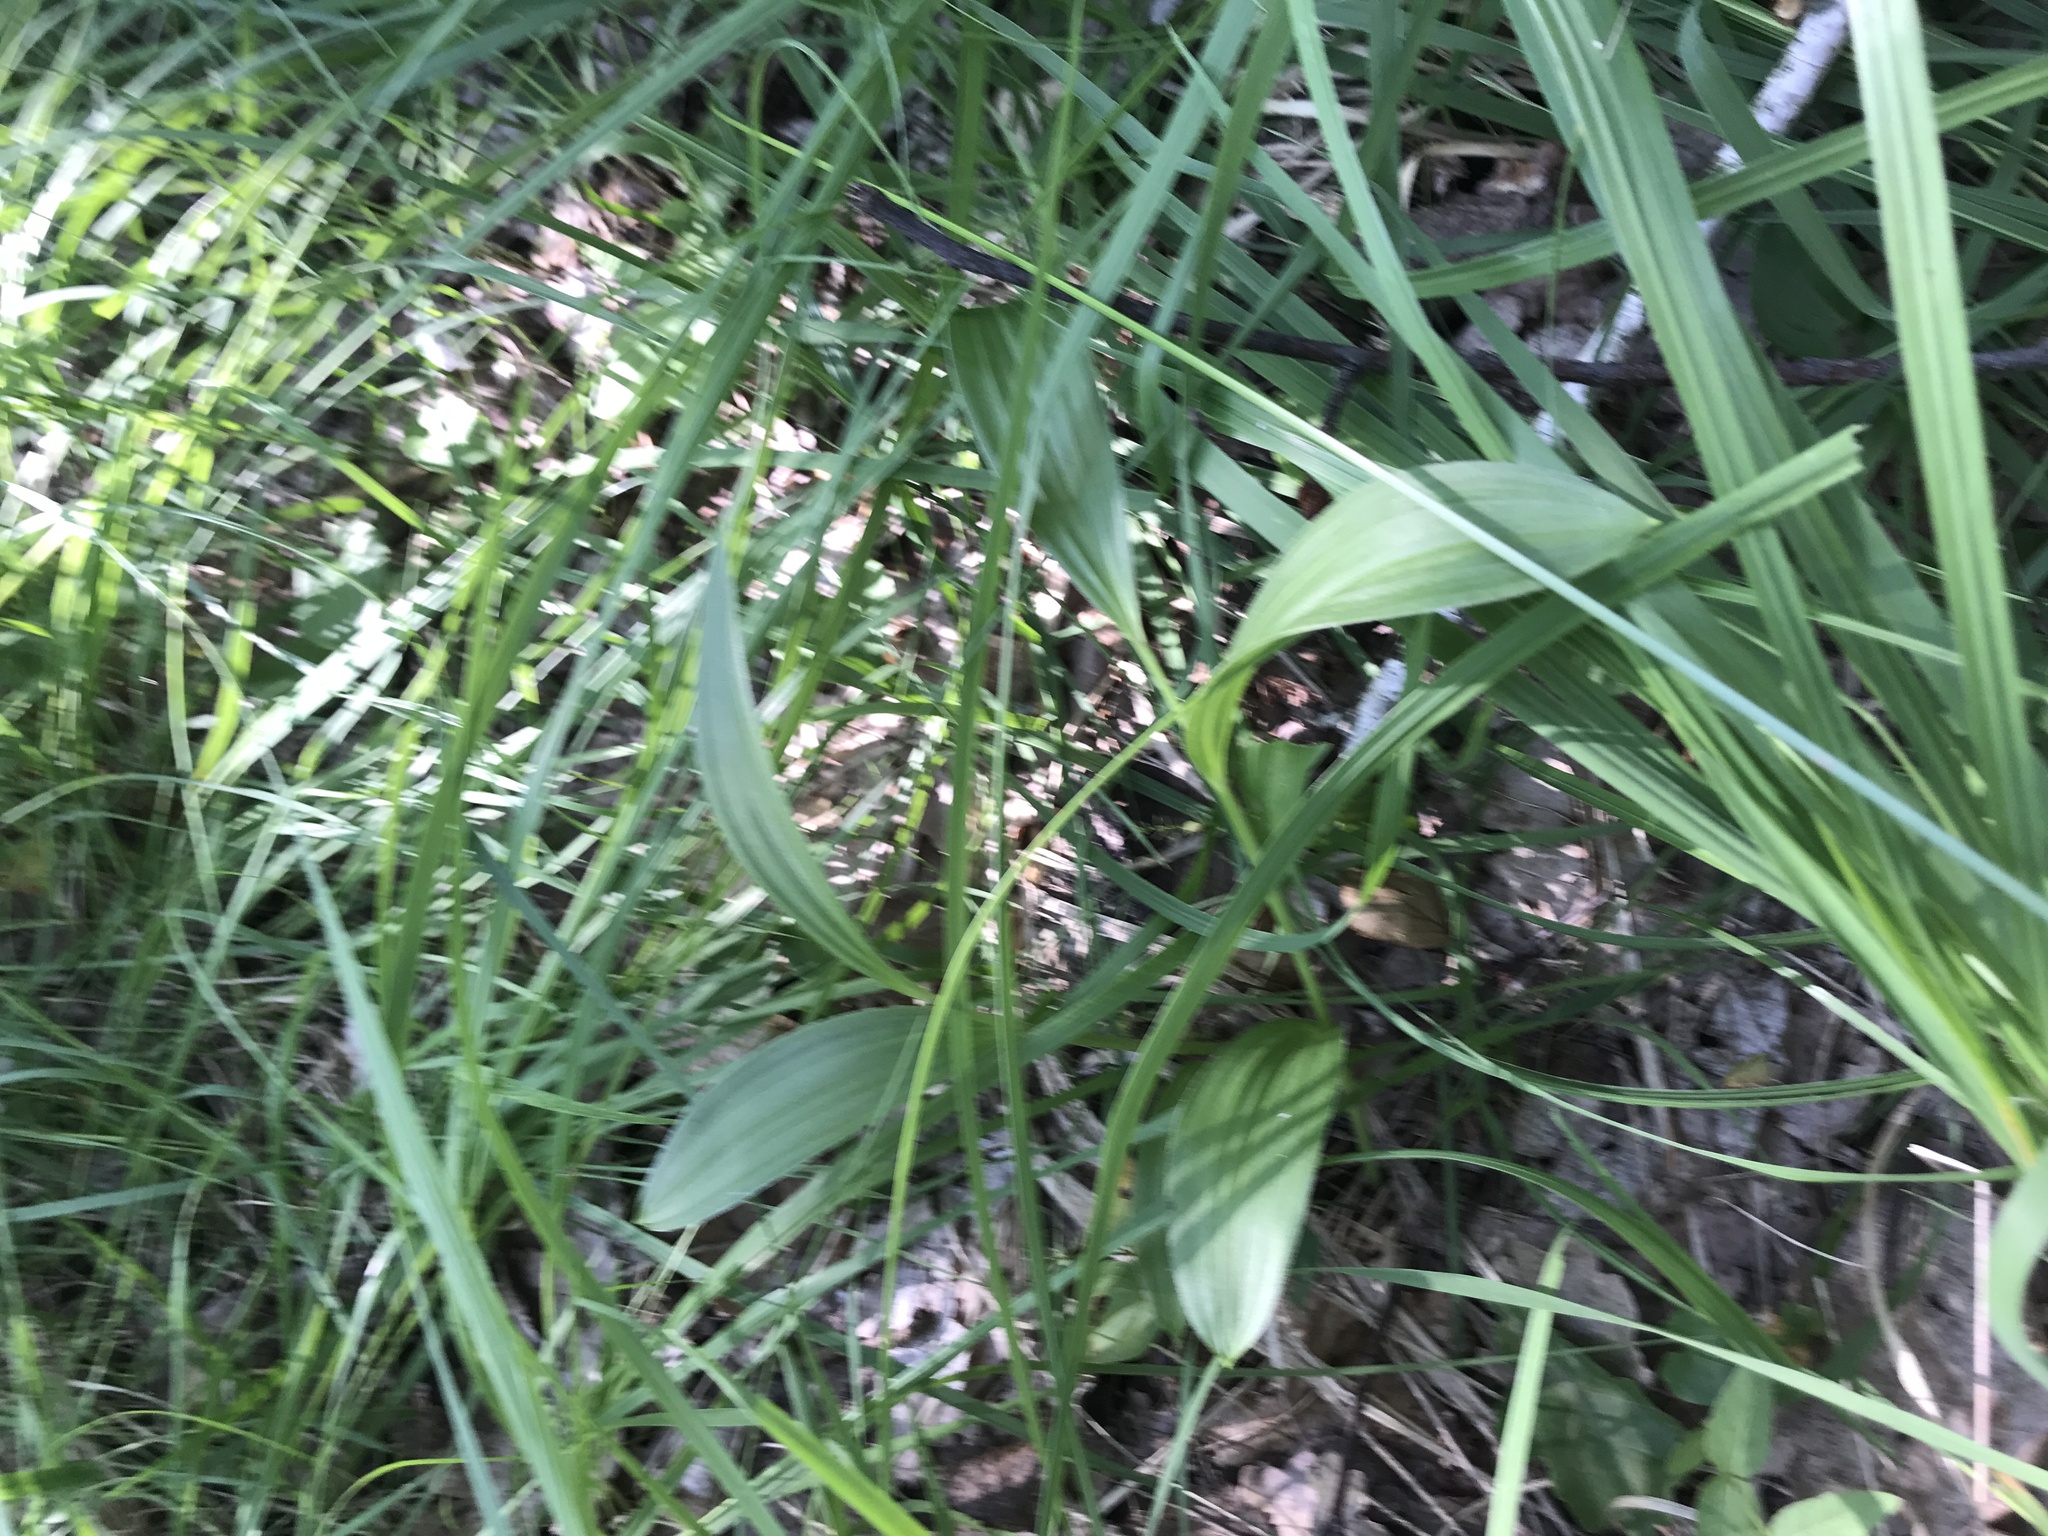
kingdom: Plantae
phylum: Tracheophyta
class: Liliopsida
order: Liliales
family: Melanthiaceae
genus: Veratrum
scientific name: Veratrum lobelianum
